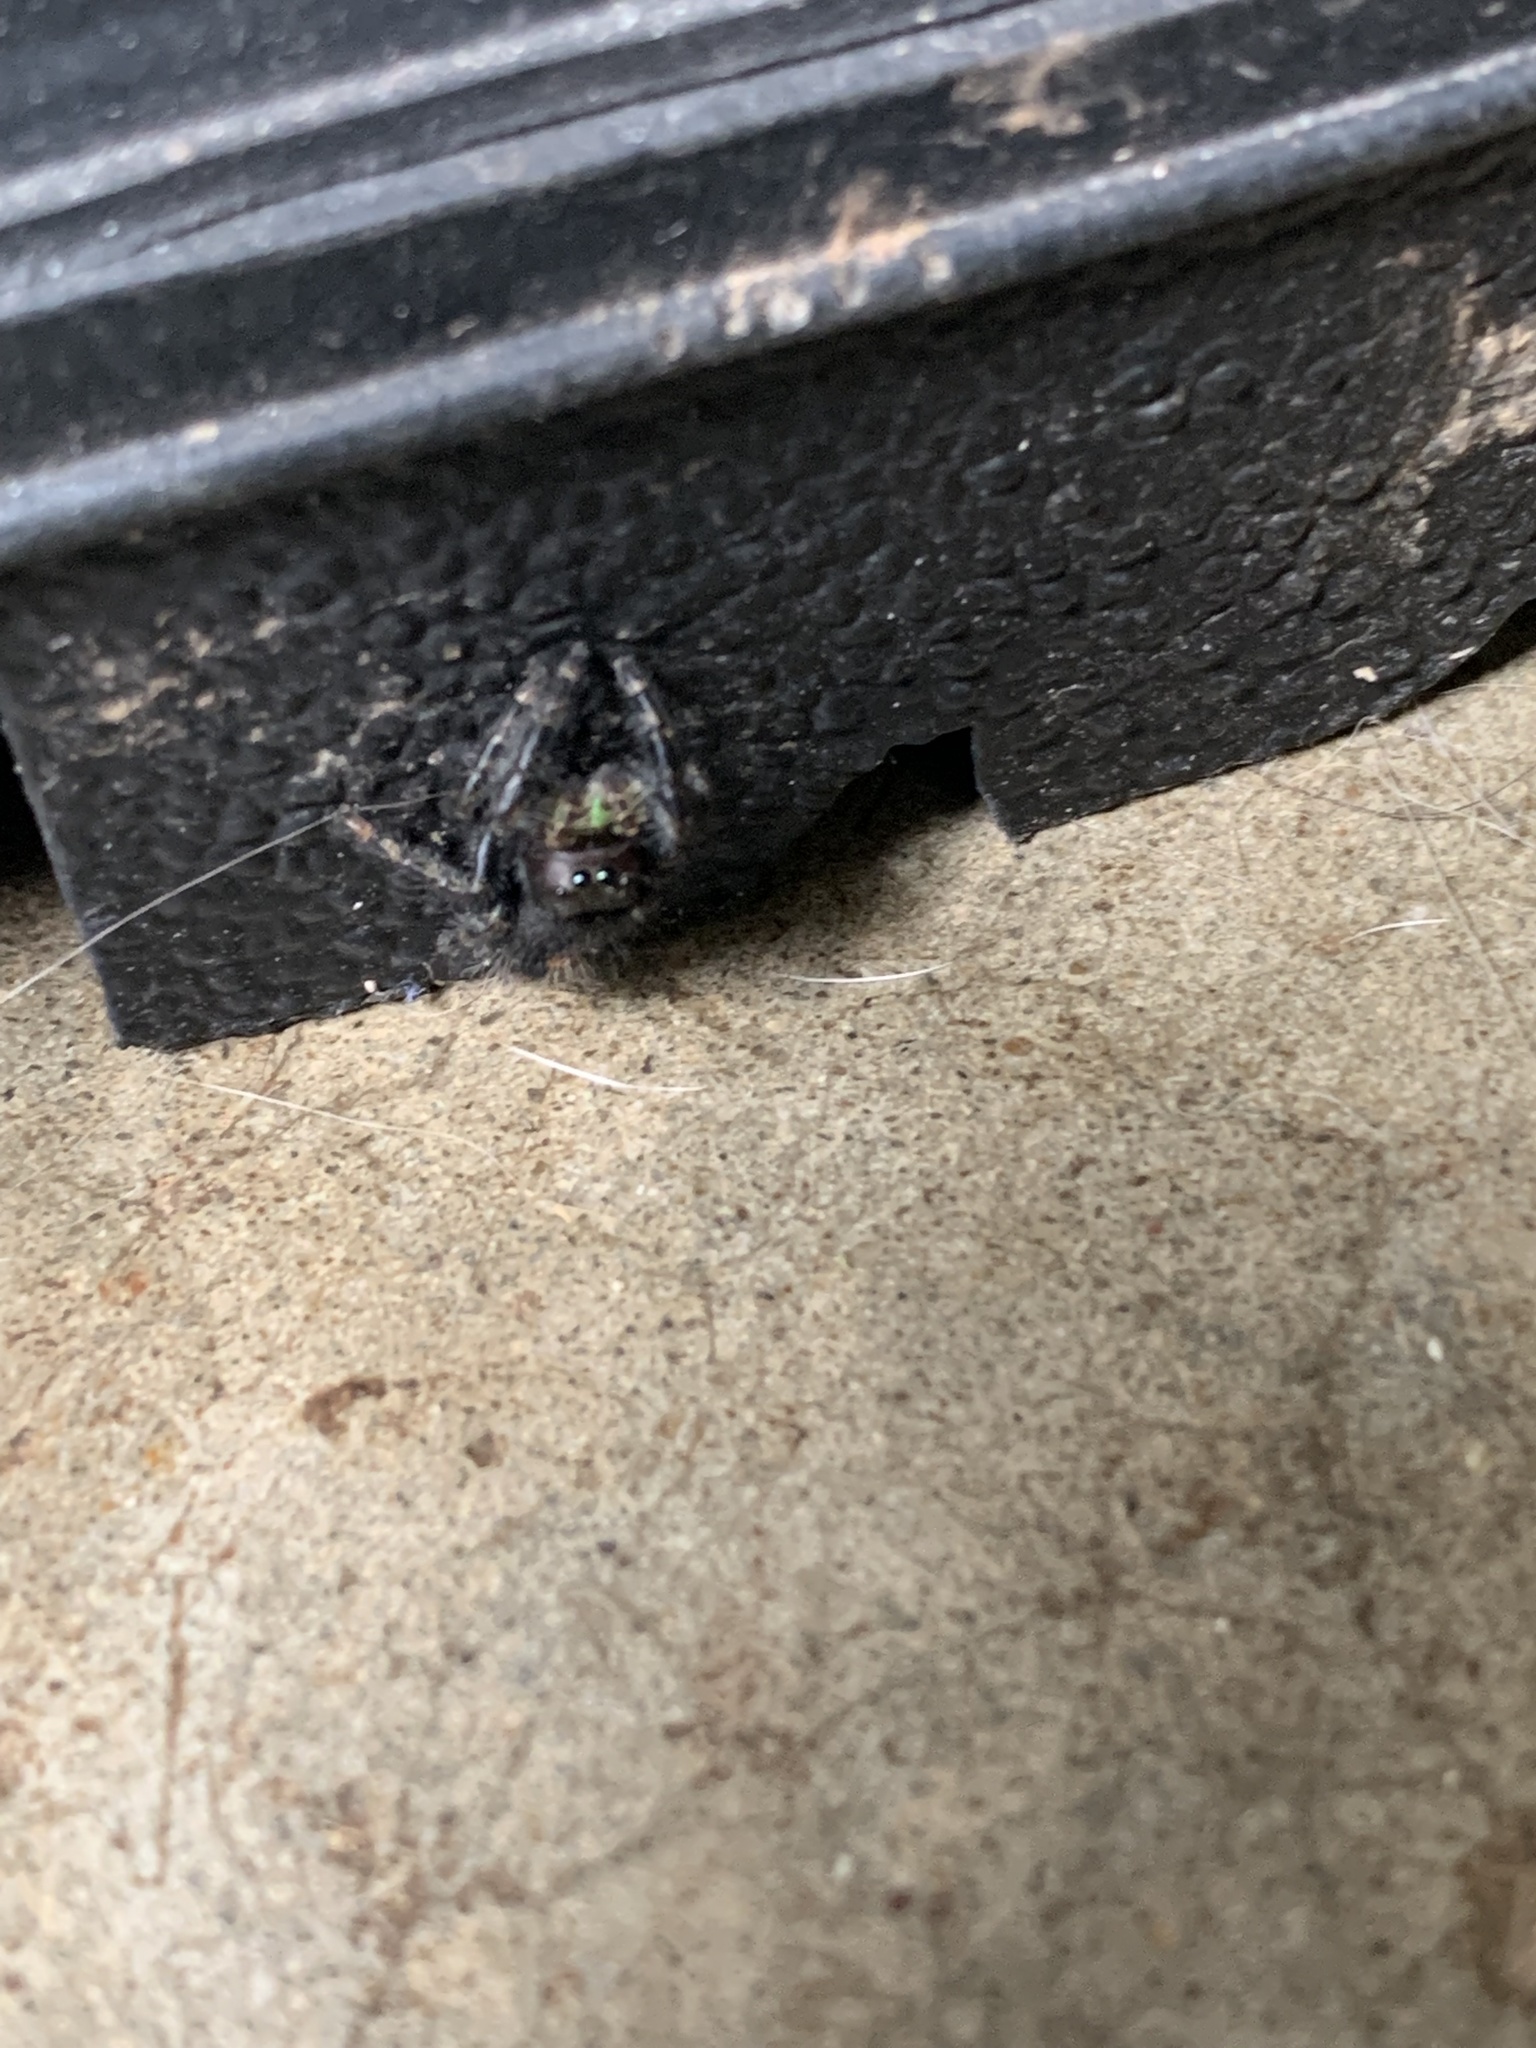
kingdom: Animalia
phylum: Arthropoda
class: Arachnida
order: Araneae
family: Salticidae
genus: Phidippus
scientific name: Phidippus audax
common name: Bold jumper
